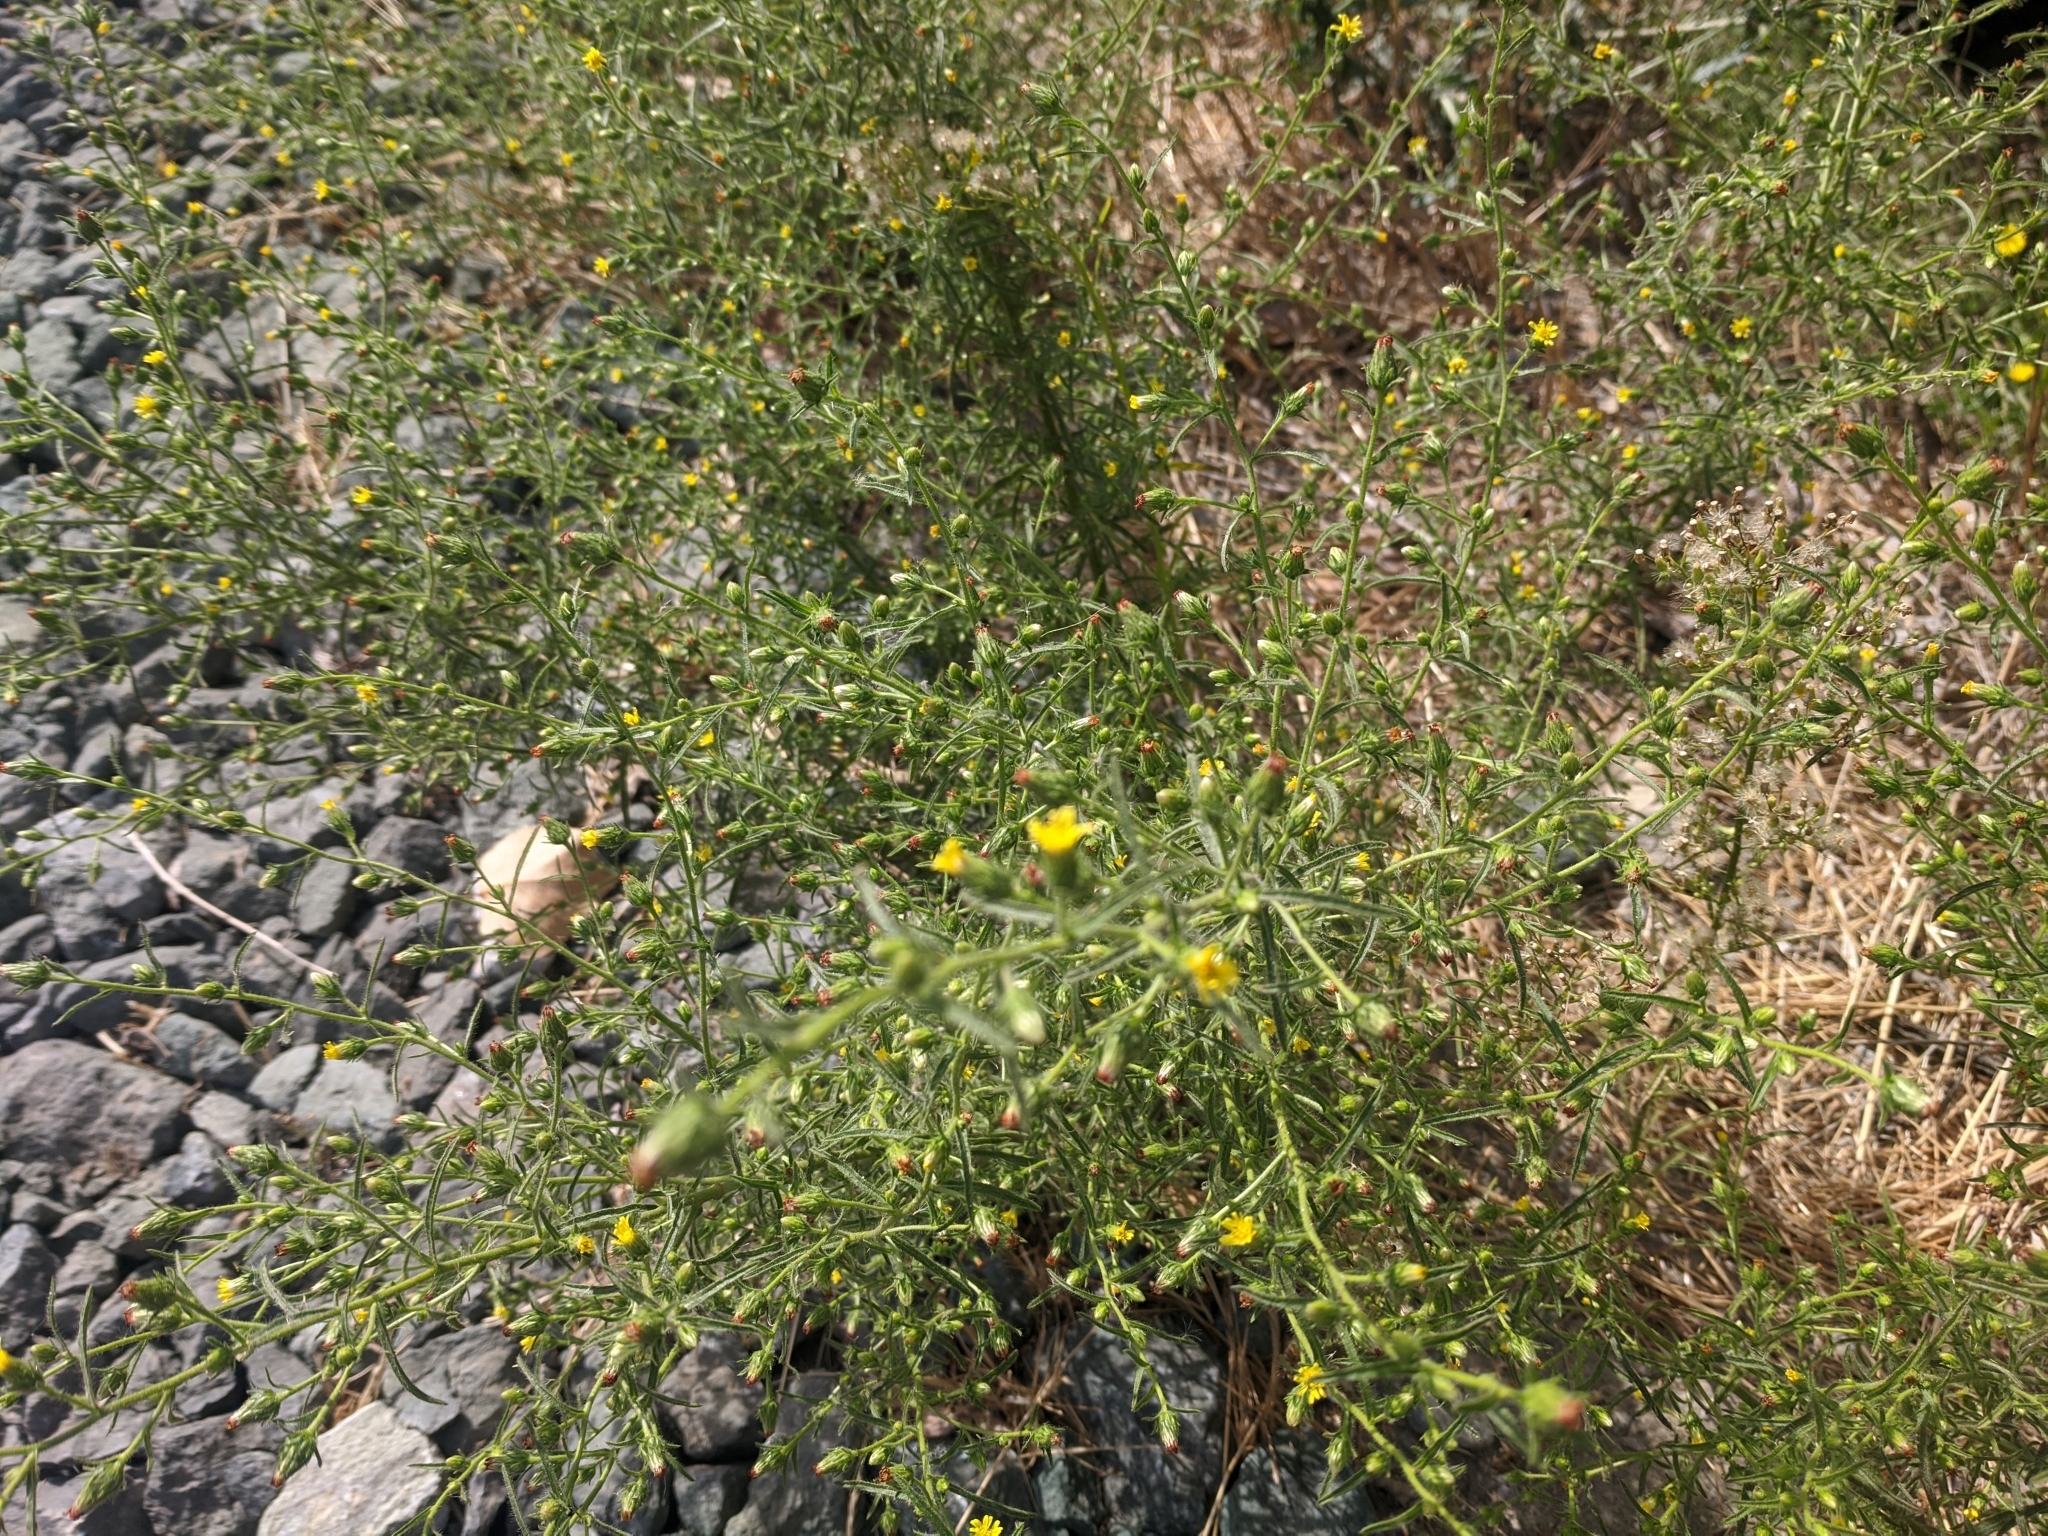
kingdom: Plantae
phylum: Tracheophyta
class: Magnoliopsida
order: Asterales
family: Asteraceae
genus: Dittrichia
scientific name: Dittrichia graveolens
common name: Stinking fleabane
